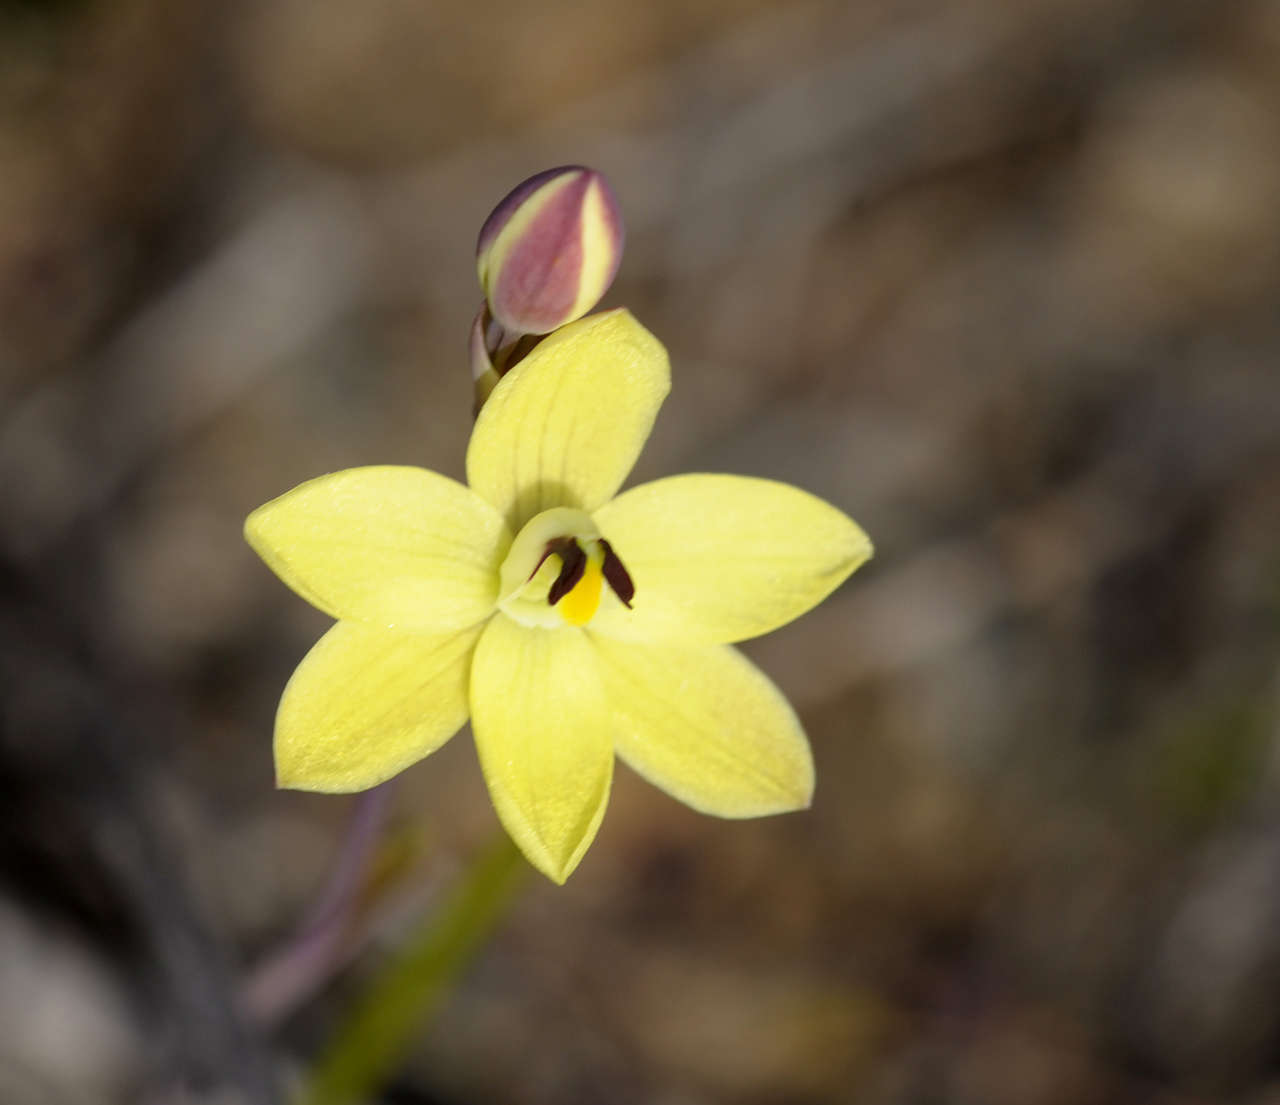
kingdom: Plantae
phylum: Tracheophyta
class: Liliopsida
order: Asparagales
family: Orchidaceae
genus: Thelymitra
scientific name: Thelymitra antennifera
